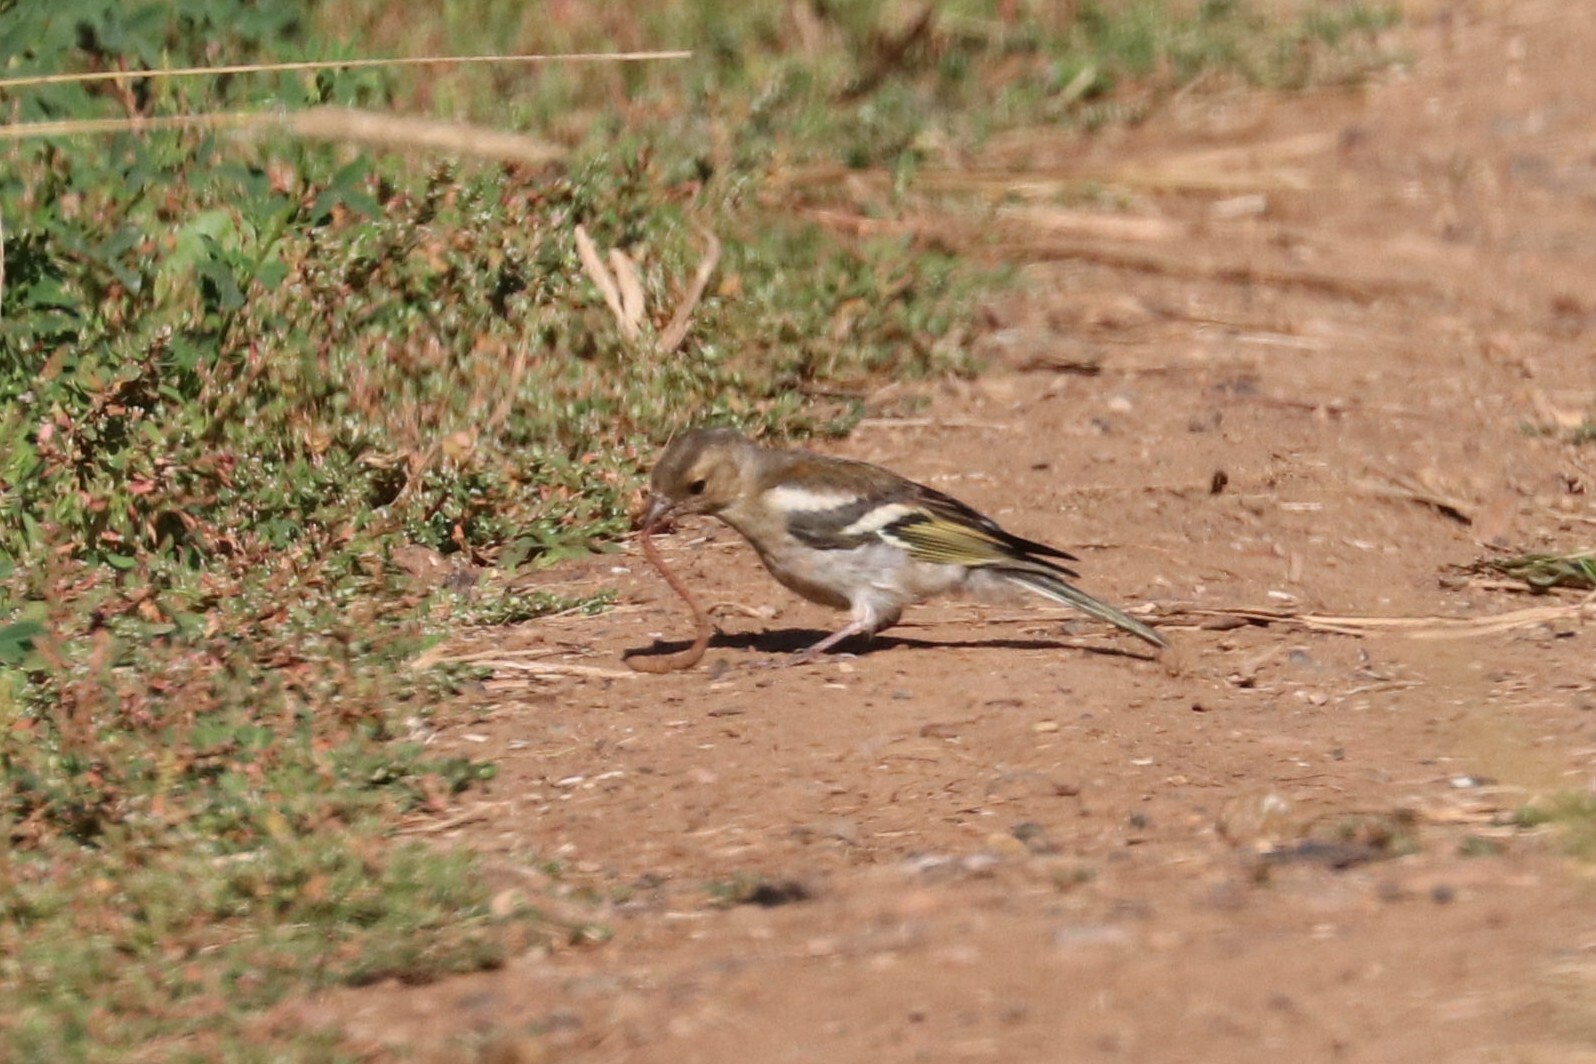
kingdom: Animalia
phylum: Chordata
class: Aves
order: Passeriformes
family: Fringillidae
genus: Fringilla
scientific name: Fringilla coelebs
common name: Common chaffinch
